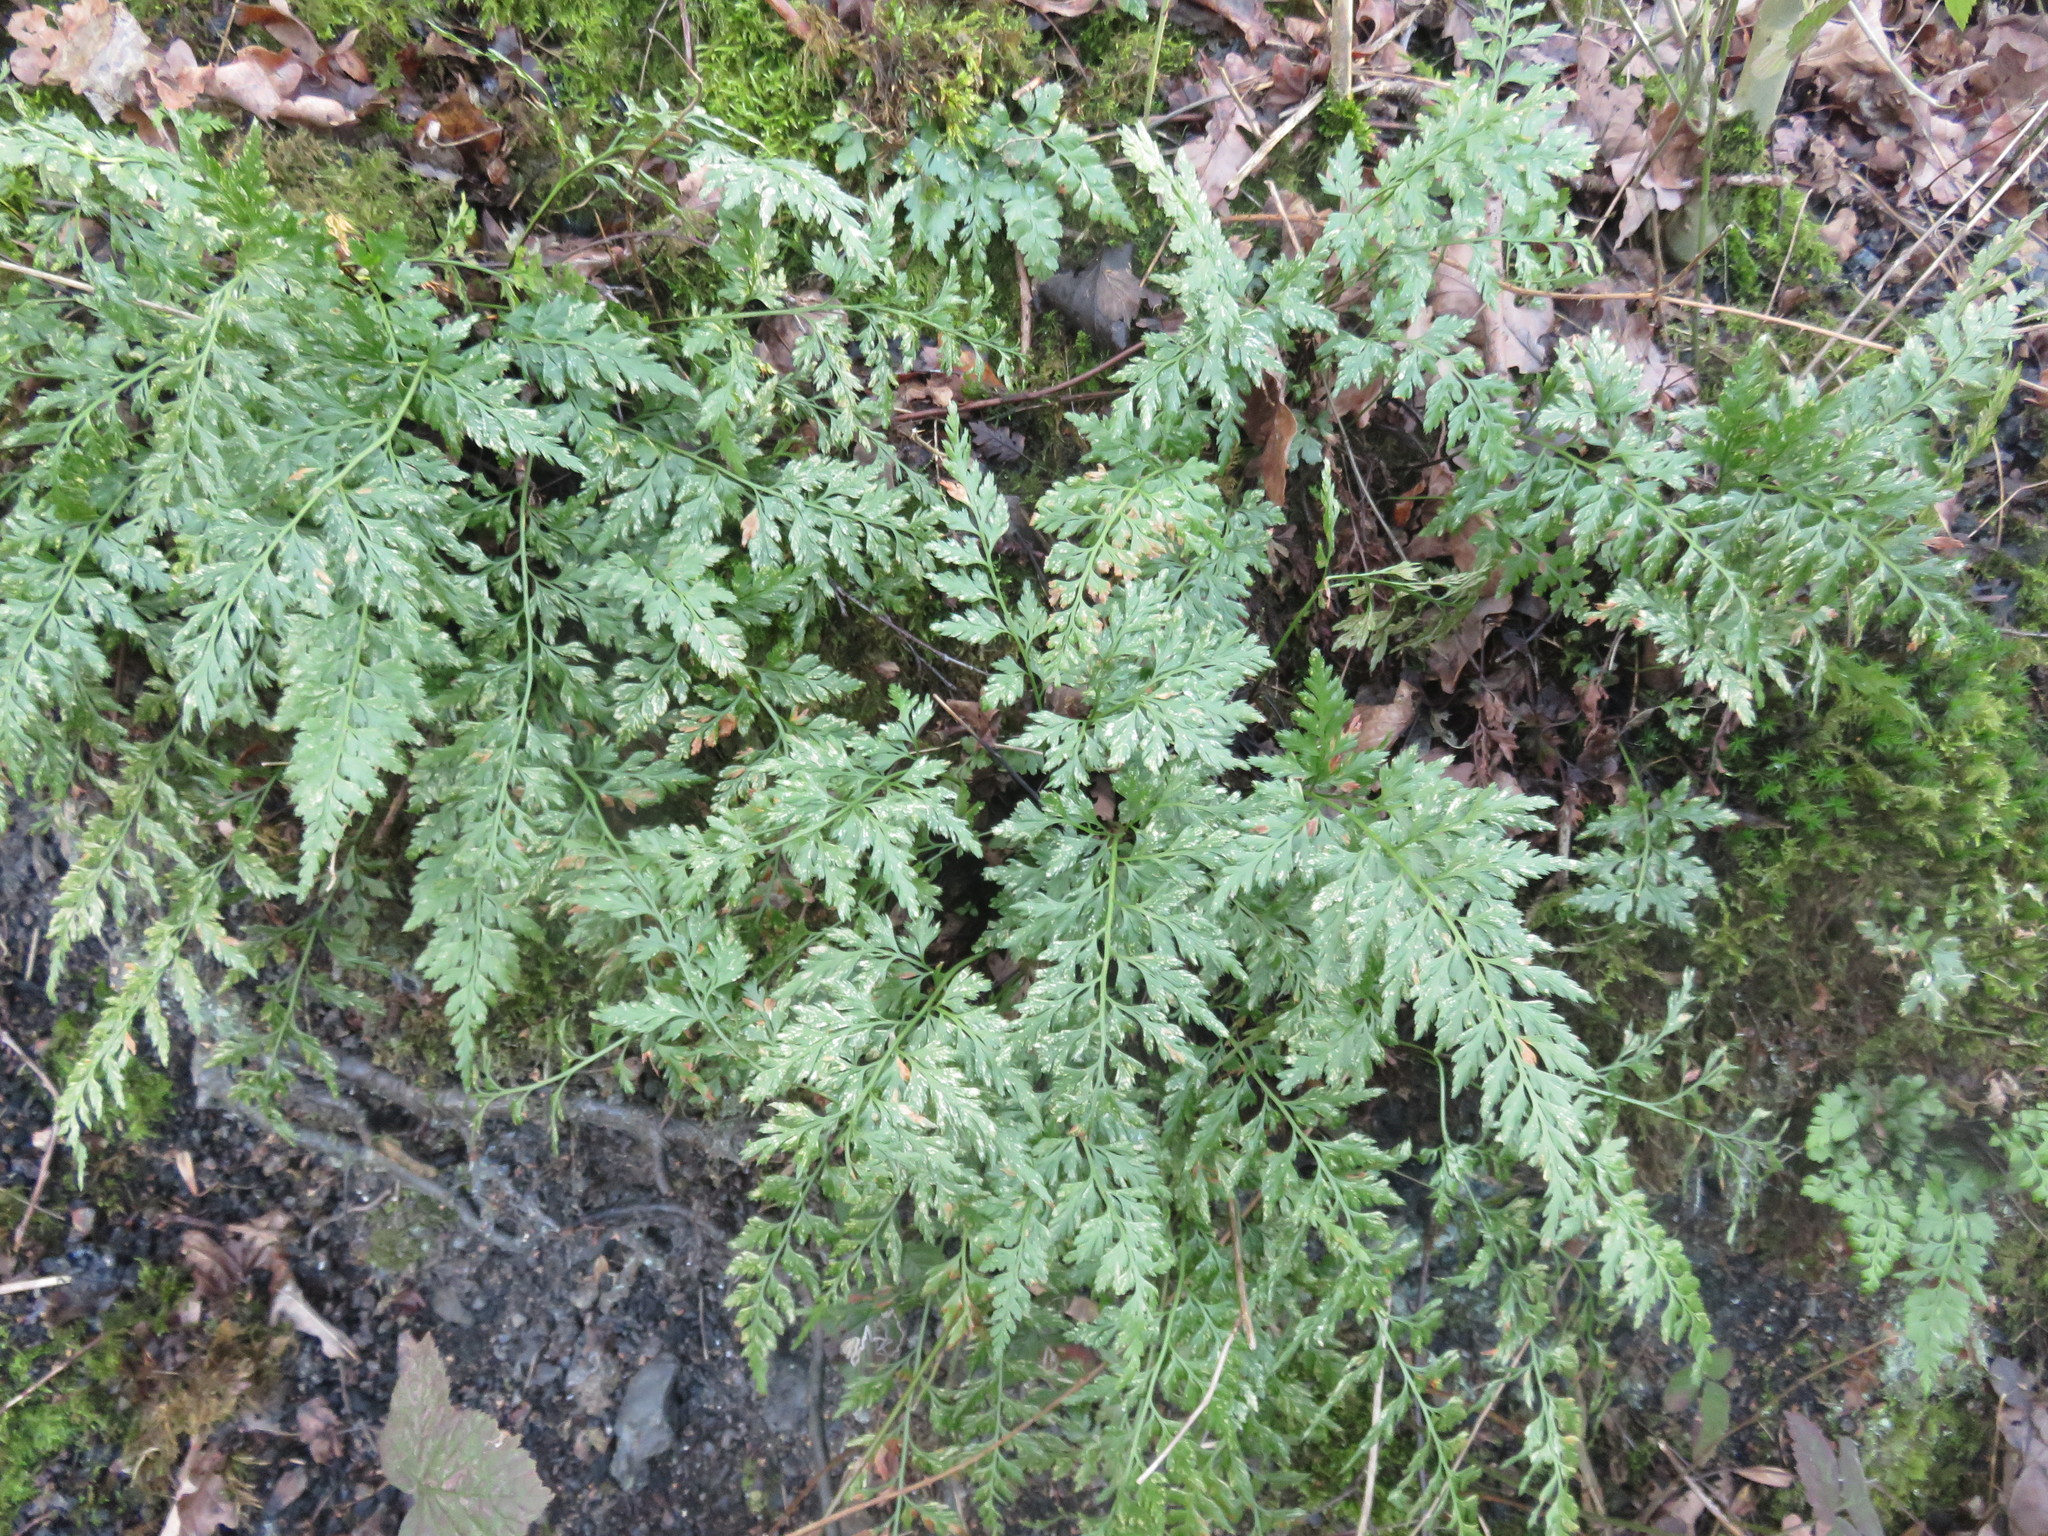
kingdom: Plantae
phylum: Tracheophyta
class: Polypodiopsida
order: Polypodiales
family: Aspleniaceae
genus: Asplenium
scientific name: Asplenium adiantum-nigrum
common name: Black spleenwort
